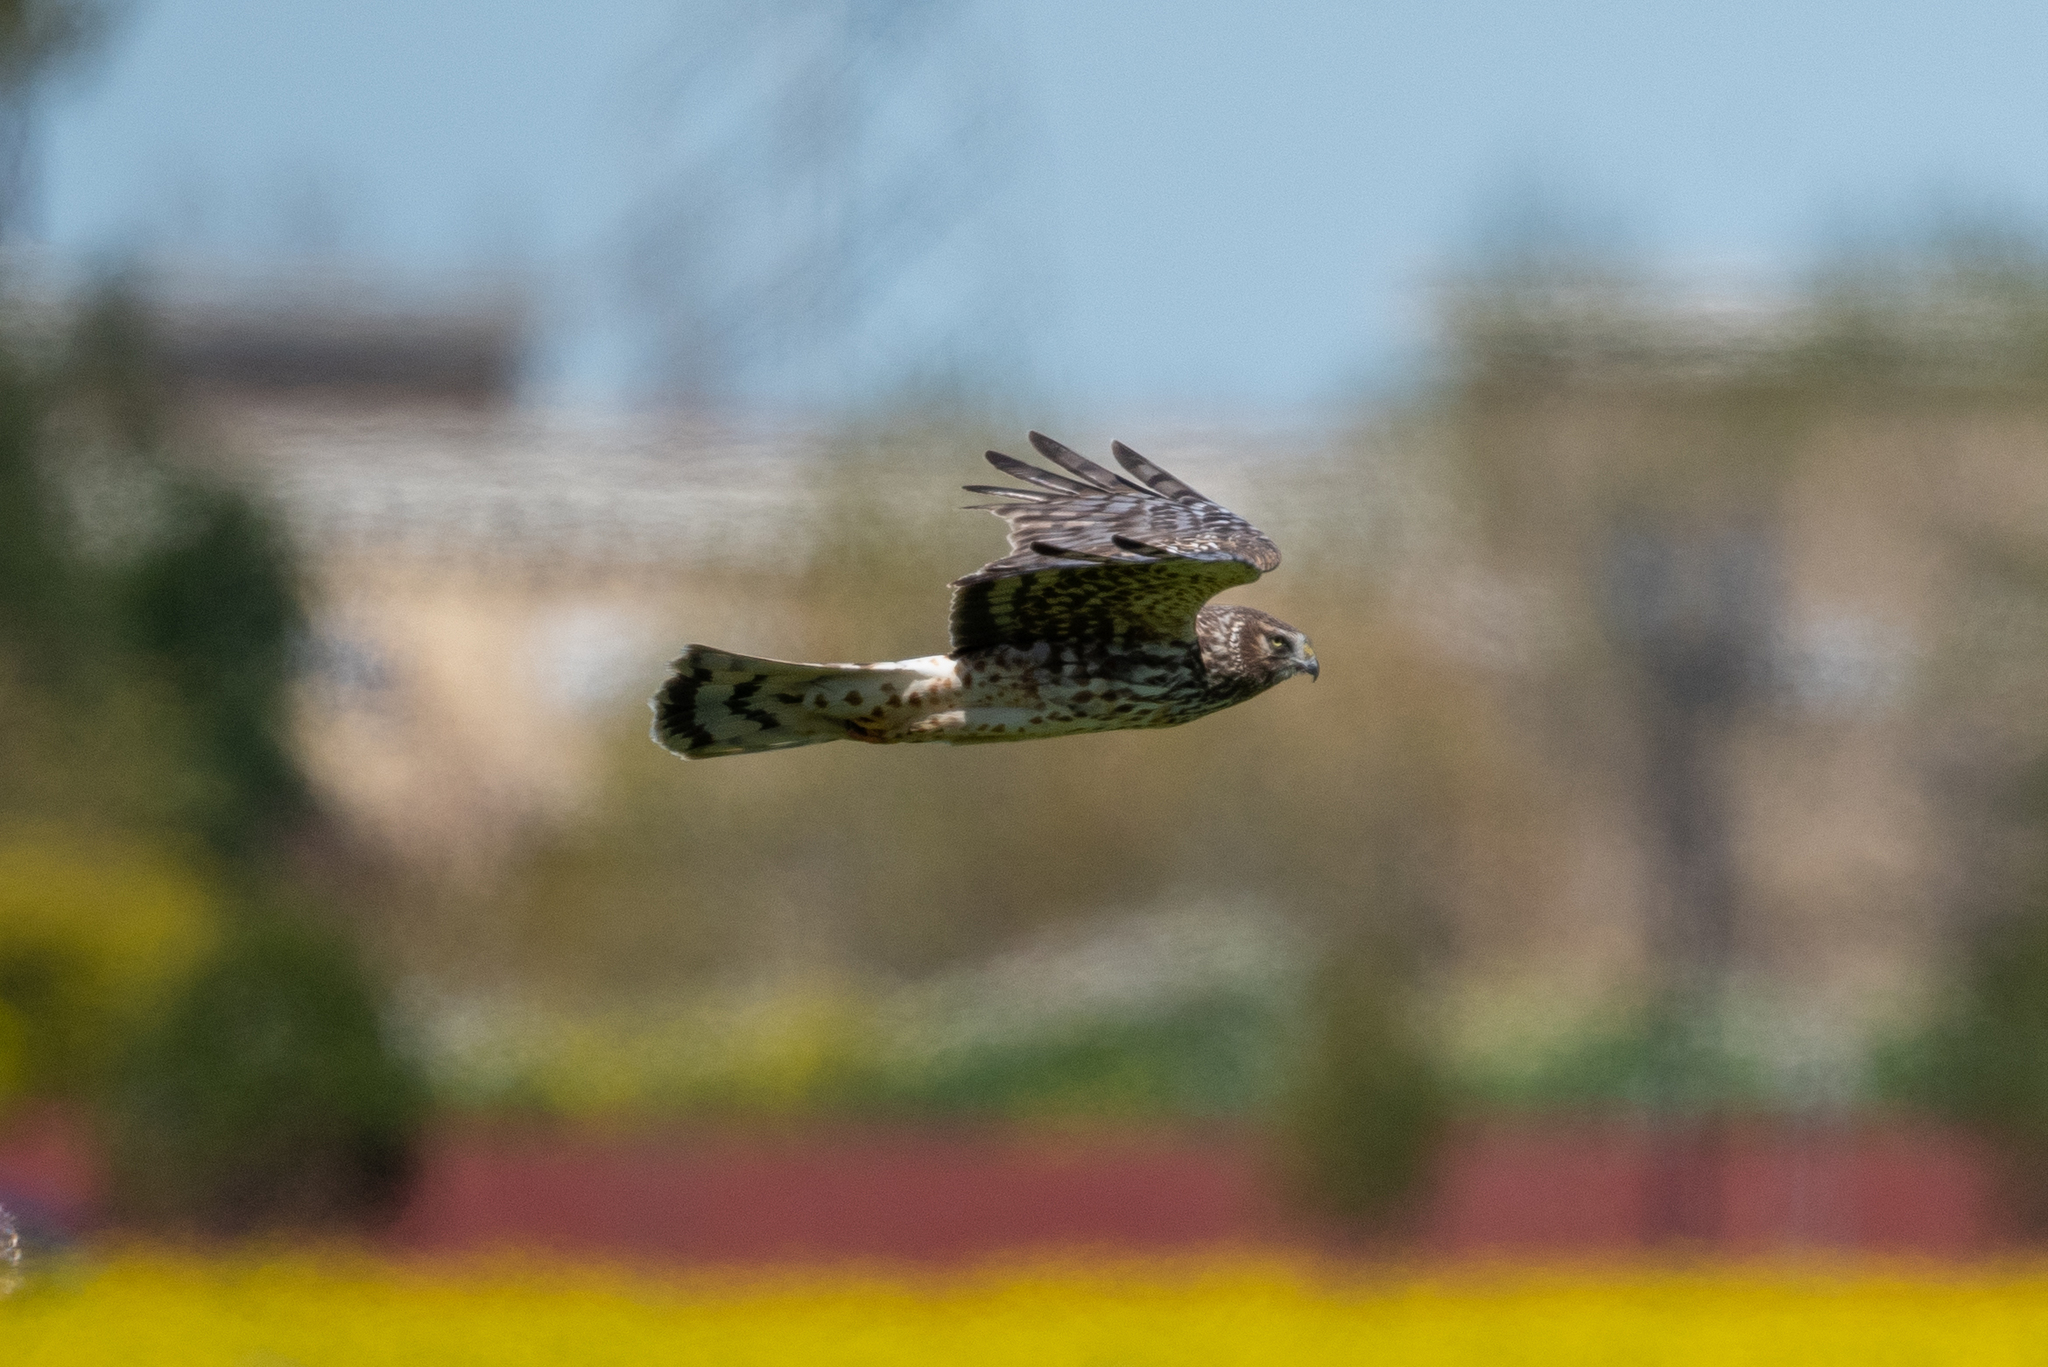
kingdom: Animalia
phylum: Chordata
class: Aves
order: Accipitriformes
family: Accipitridae
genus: Circus
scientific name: Circus cyaneus
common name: Hen harrier
